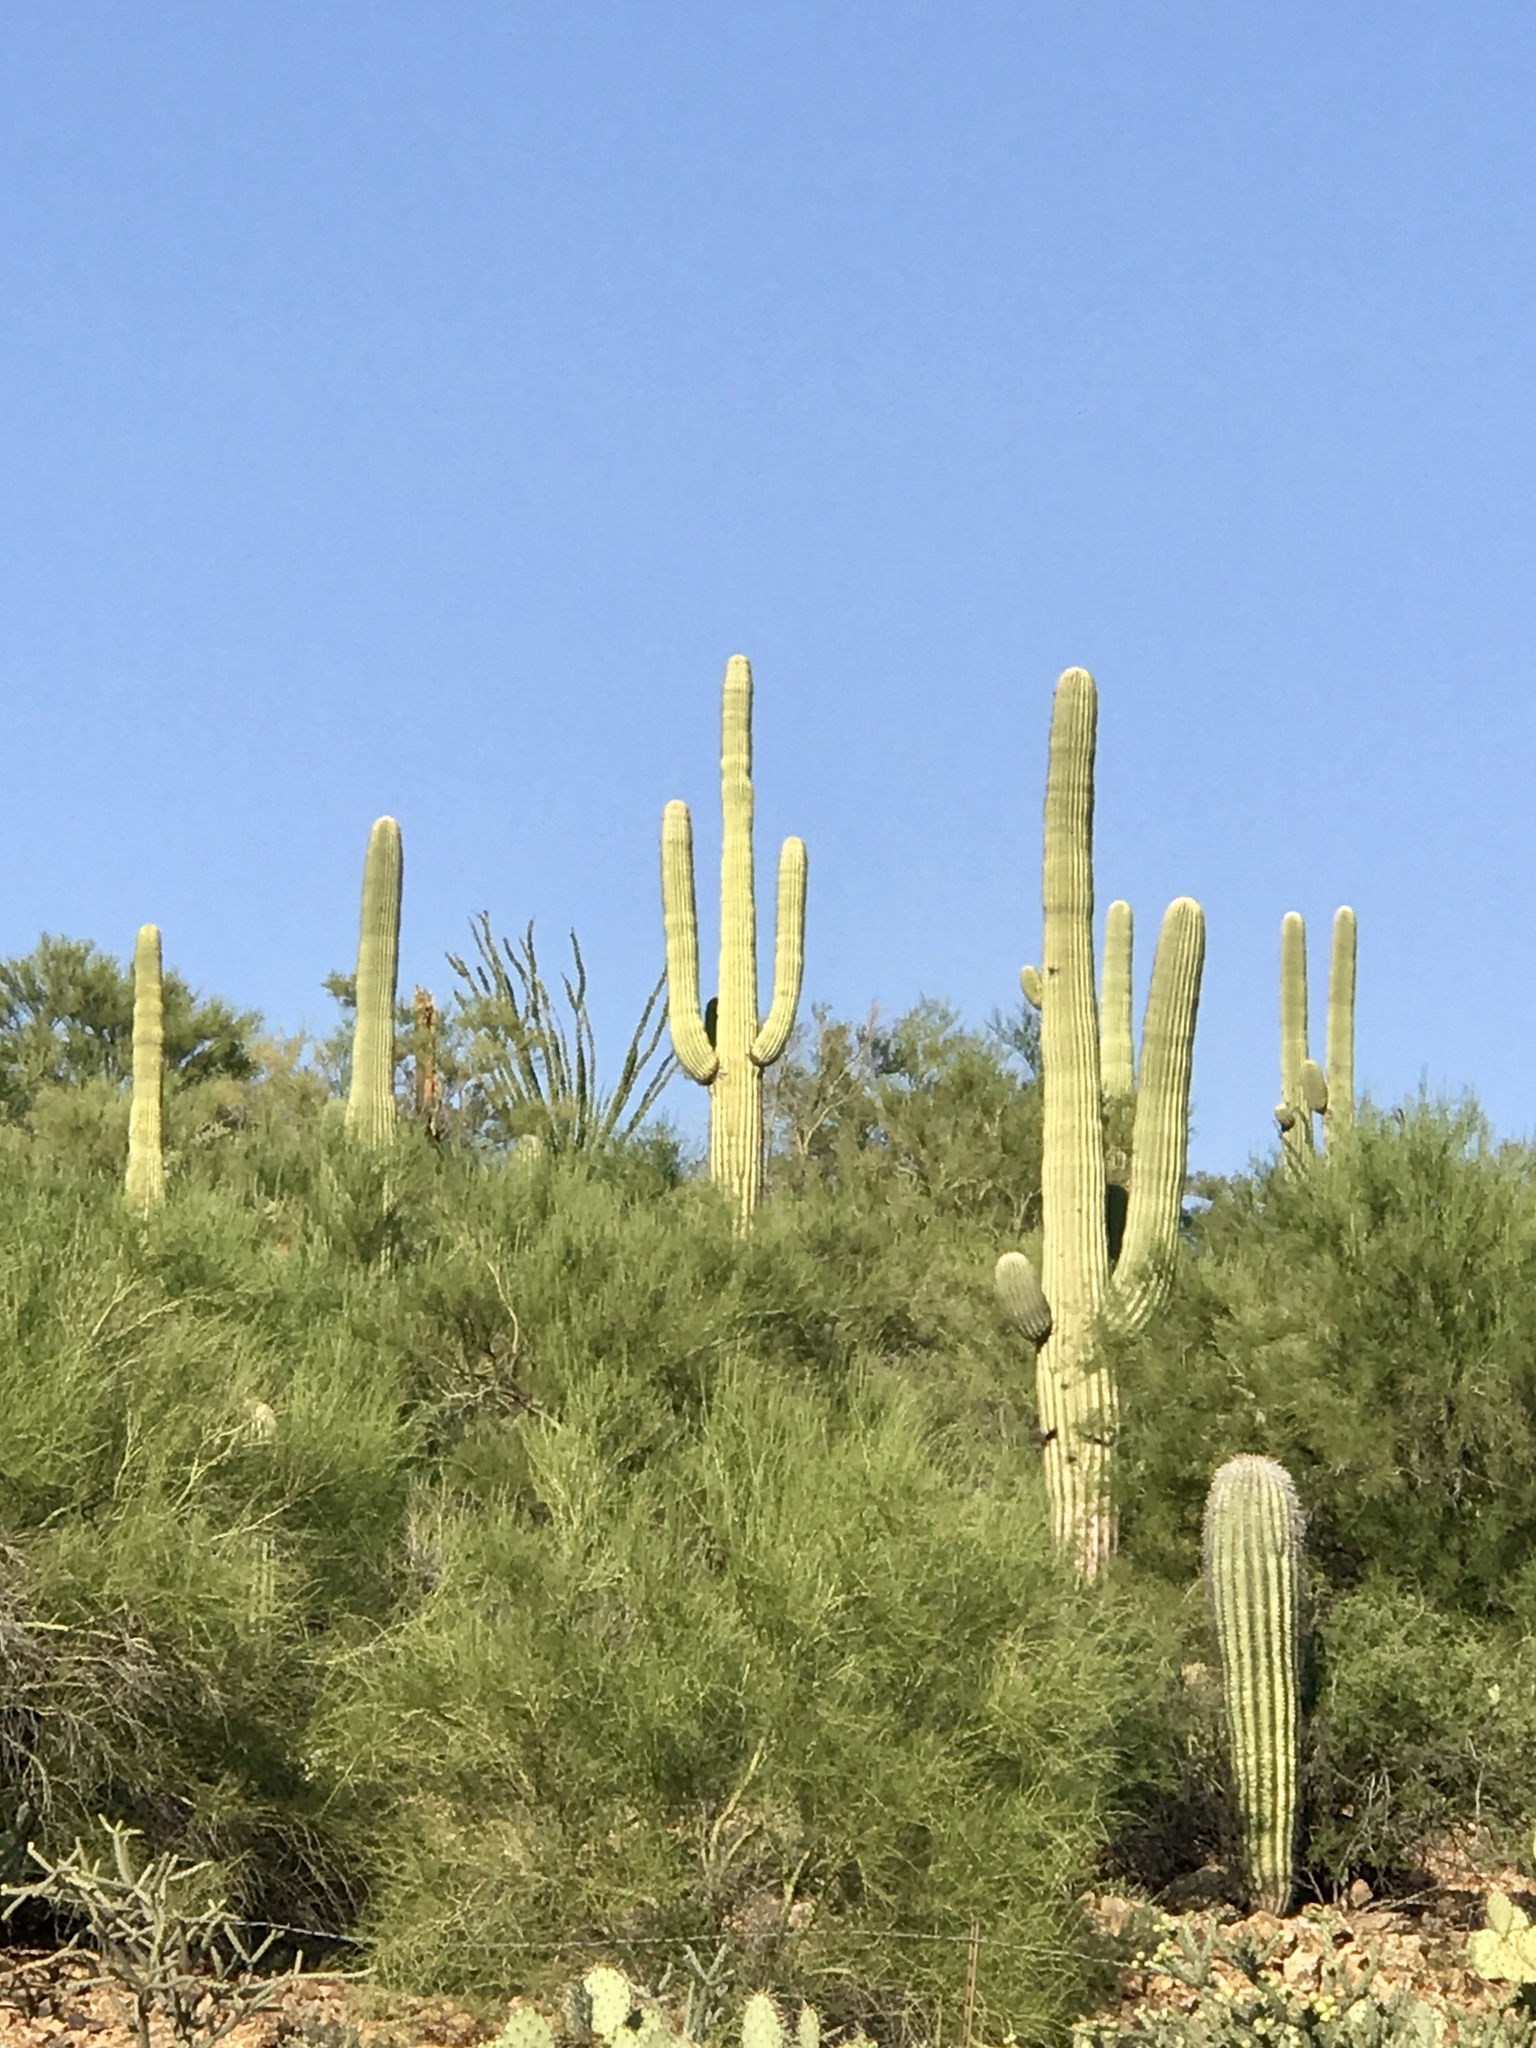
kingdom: Plantae
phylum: Tracheophyta
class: Magnoliopsida
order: Caryophyllales
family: Cactaceae
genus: Carnegiea
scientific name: Carnegiea gigantea
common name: Saguaro
